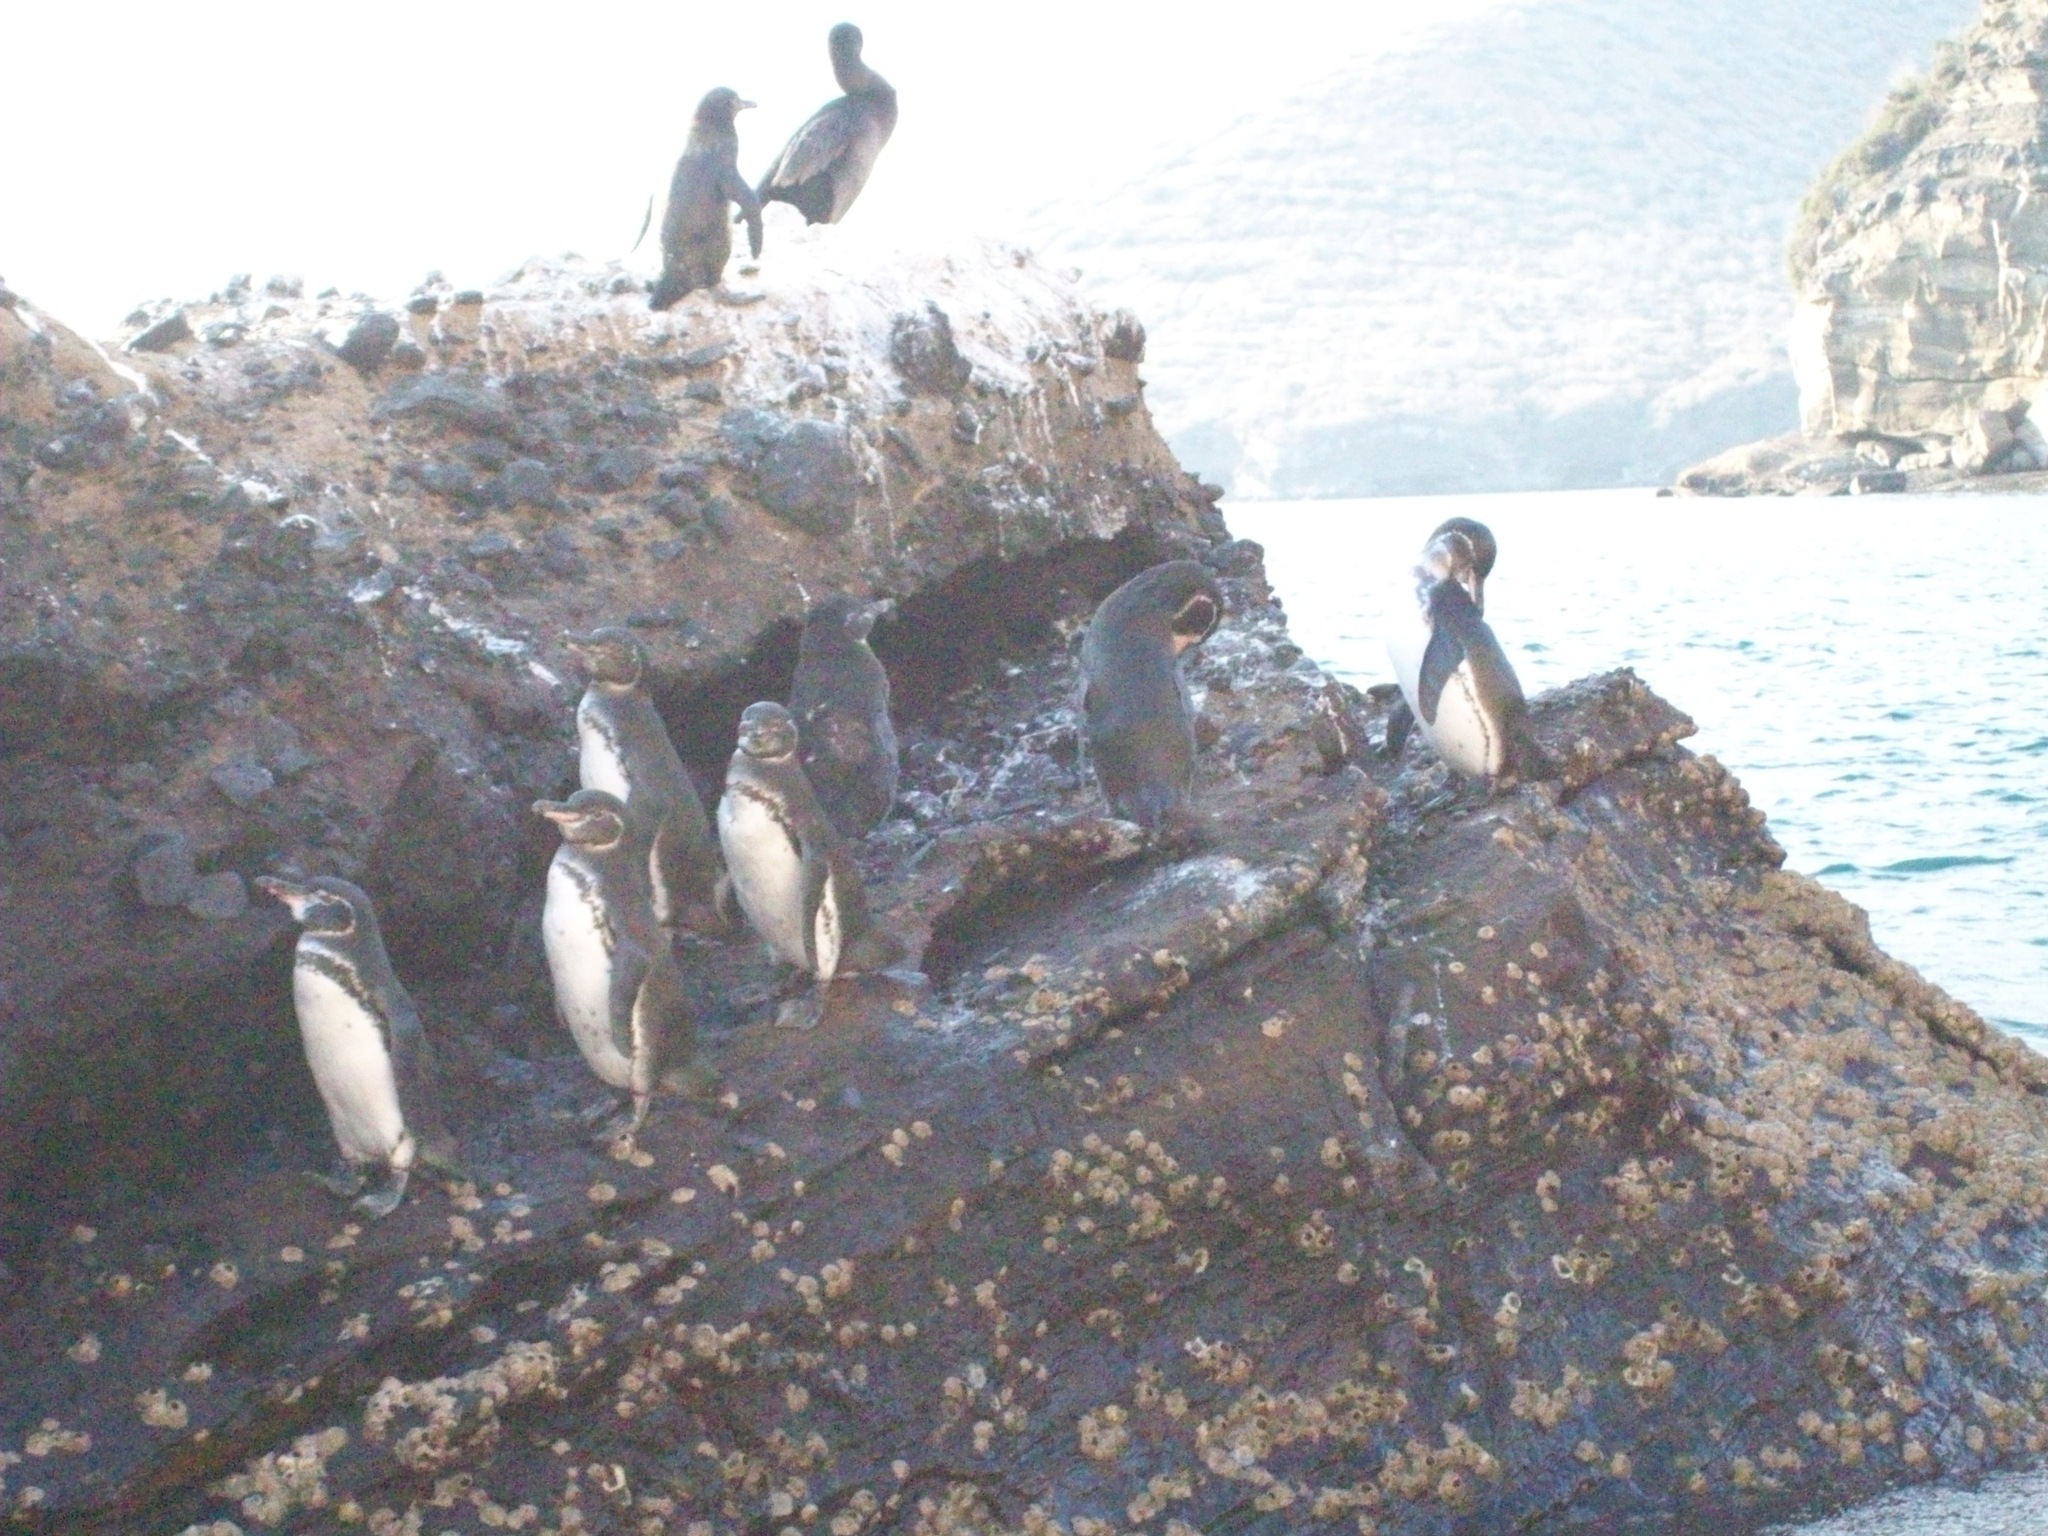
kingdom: Animalia
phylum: Chordata
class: Aves
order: Sphenisciformes
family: Spheniscidae
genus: Spheniscus
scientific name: Spheniscus mendiculus
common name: Galapagos penguin
